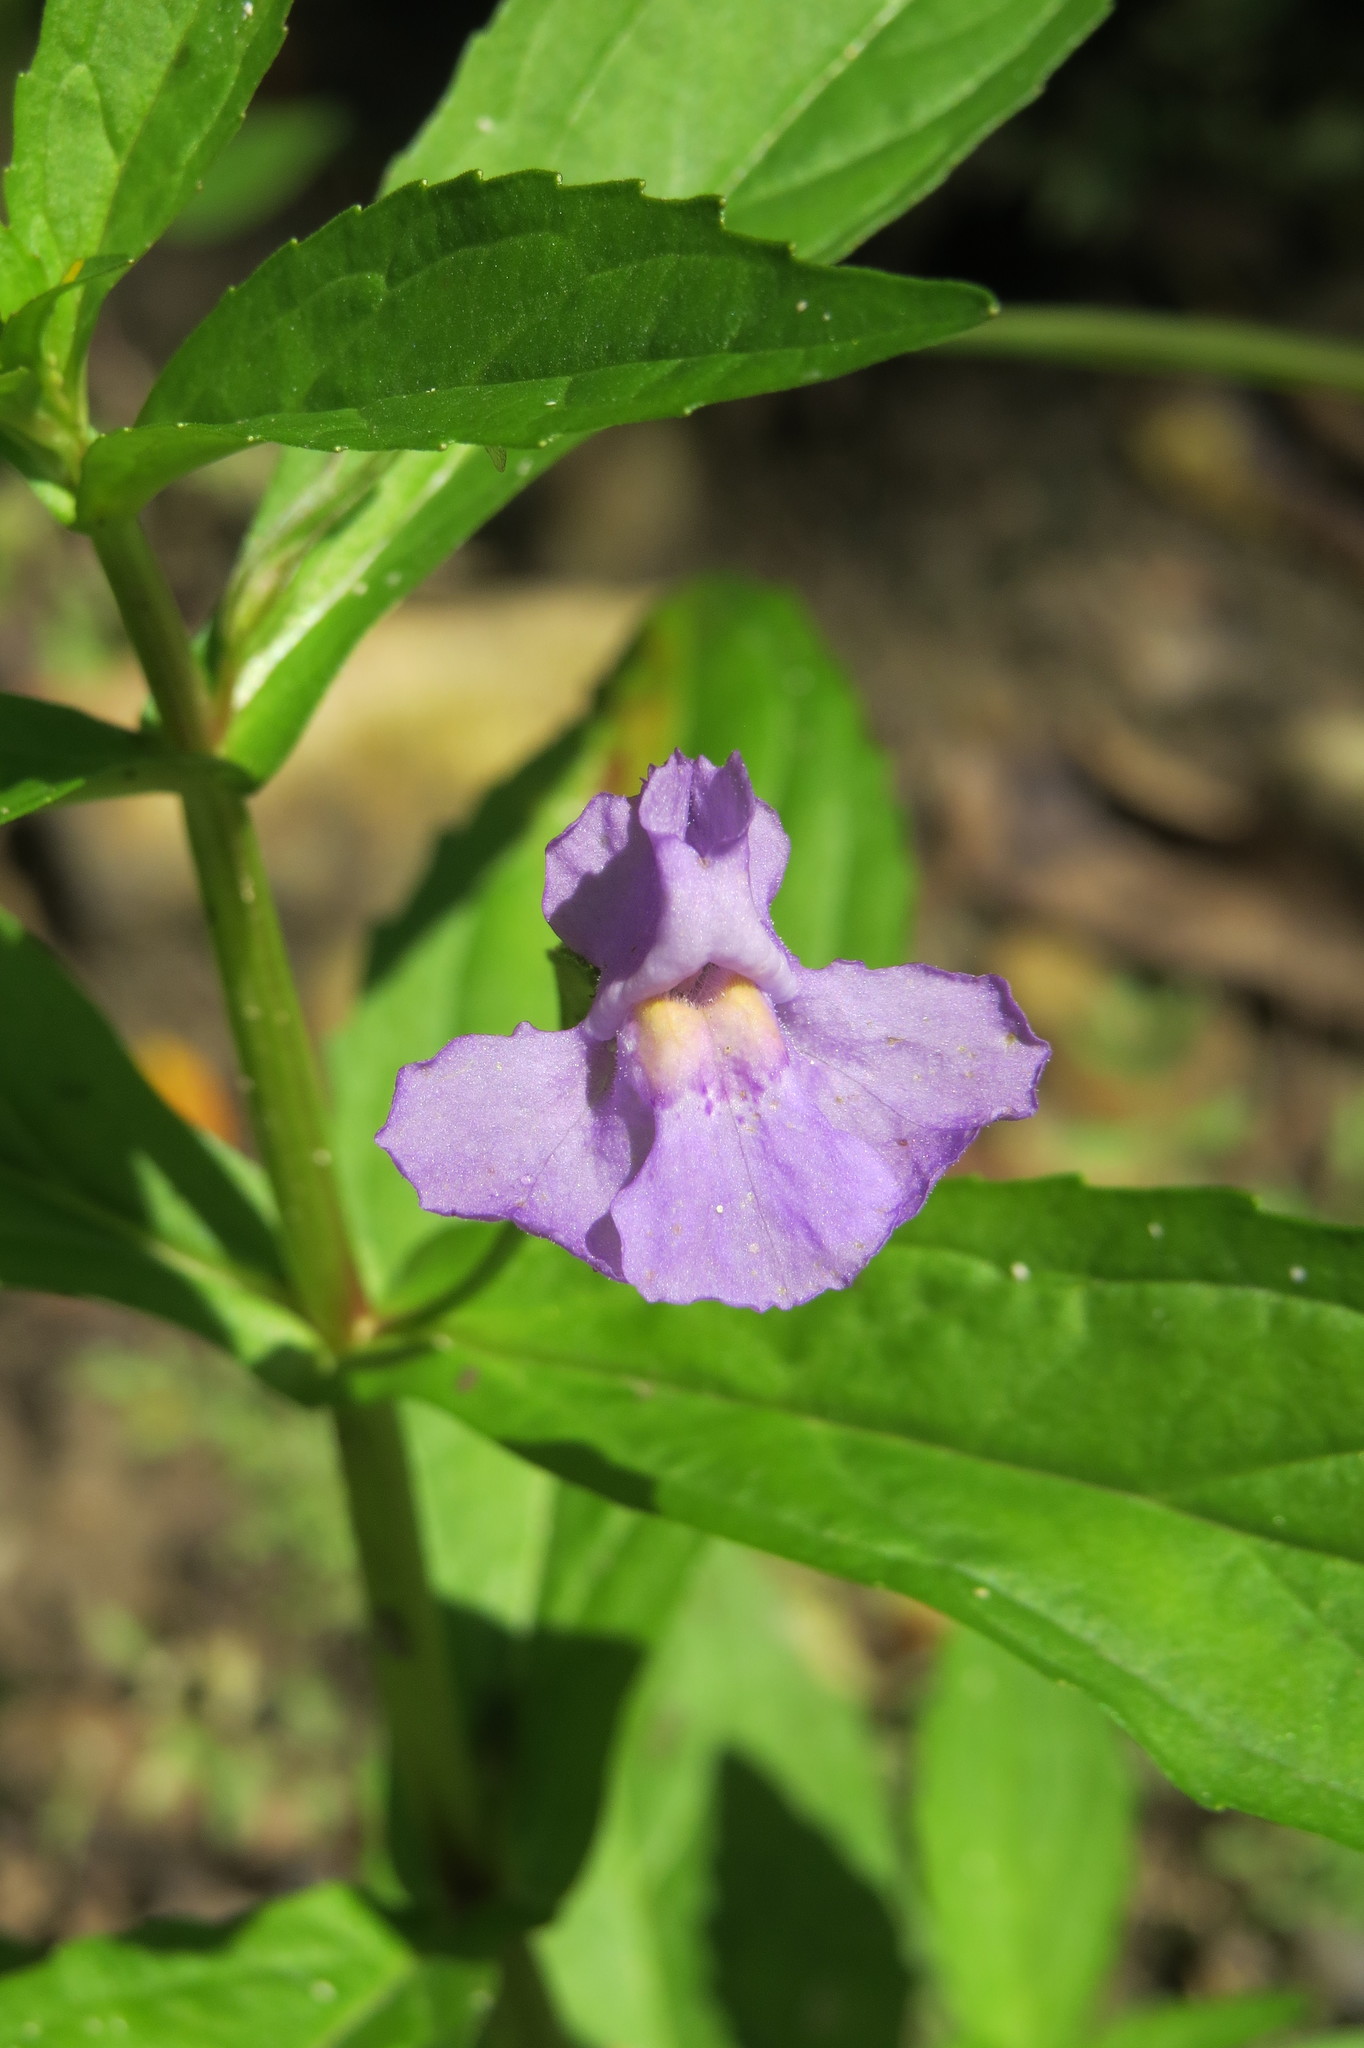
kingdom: Plantae
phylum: Tracheophyta
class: Magnoliopsida
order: Lamiales
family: Phrymaceae
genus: Mimulus
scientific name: Mimulus ringens
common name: Allegheny monkeyflower
